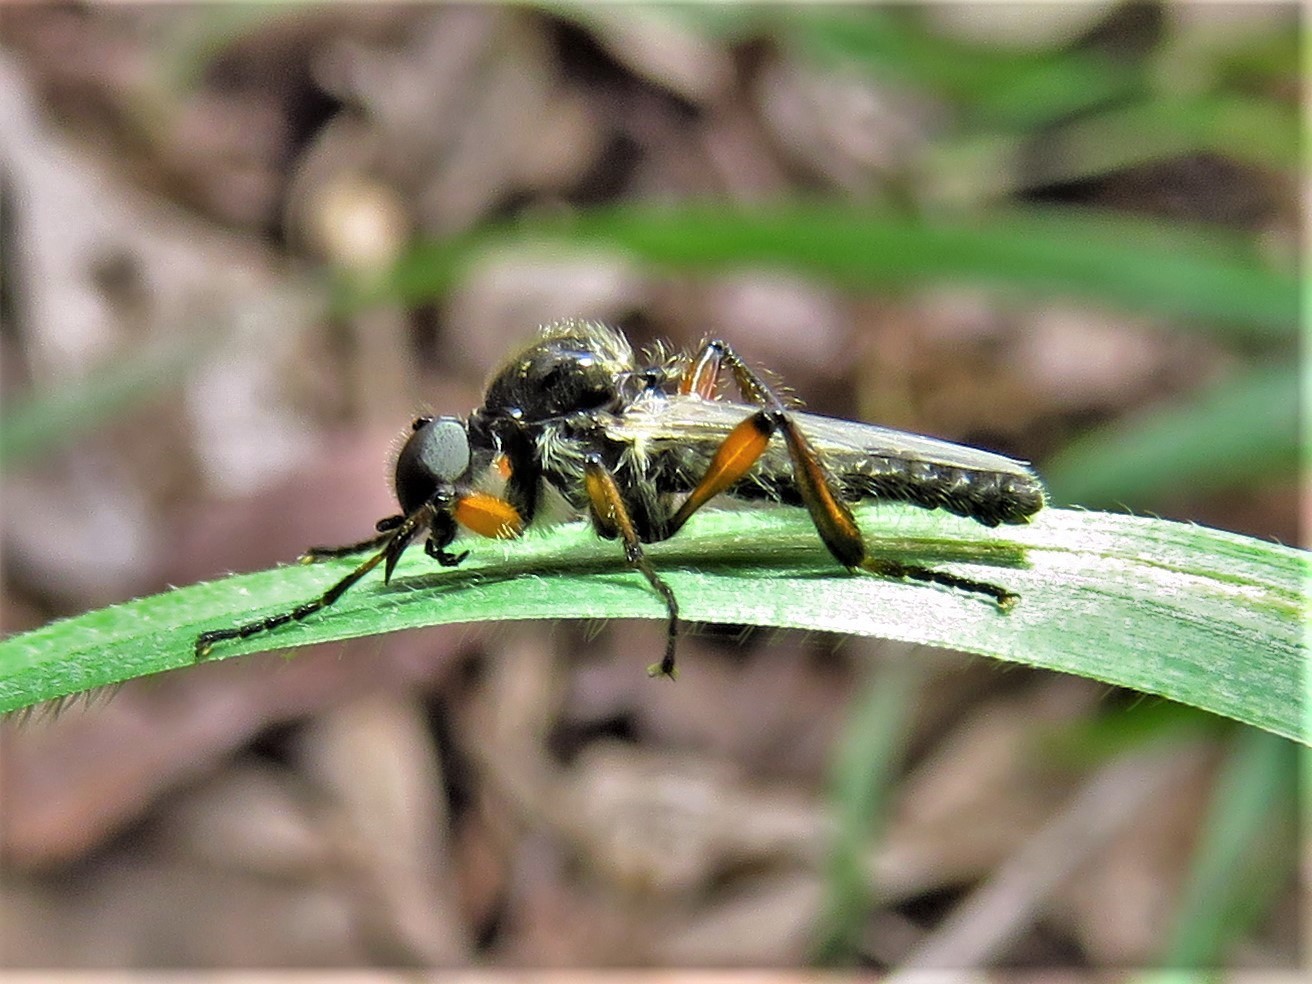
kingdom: Animalia
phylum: Arthropoda
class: Insecta
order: Diptera
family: Bibionidae
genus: Bibio
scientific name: Bibio alienus
